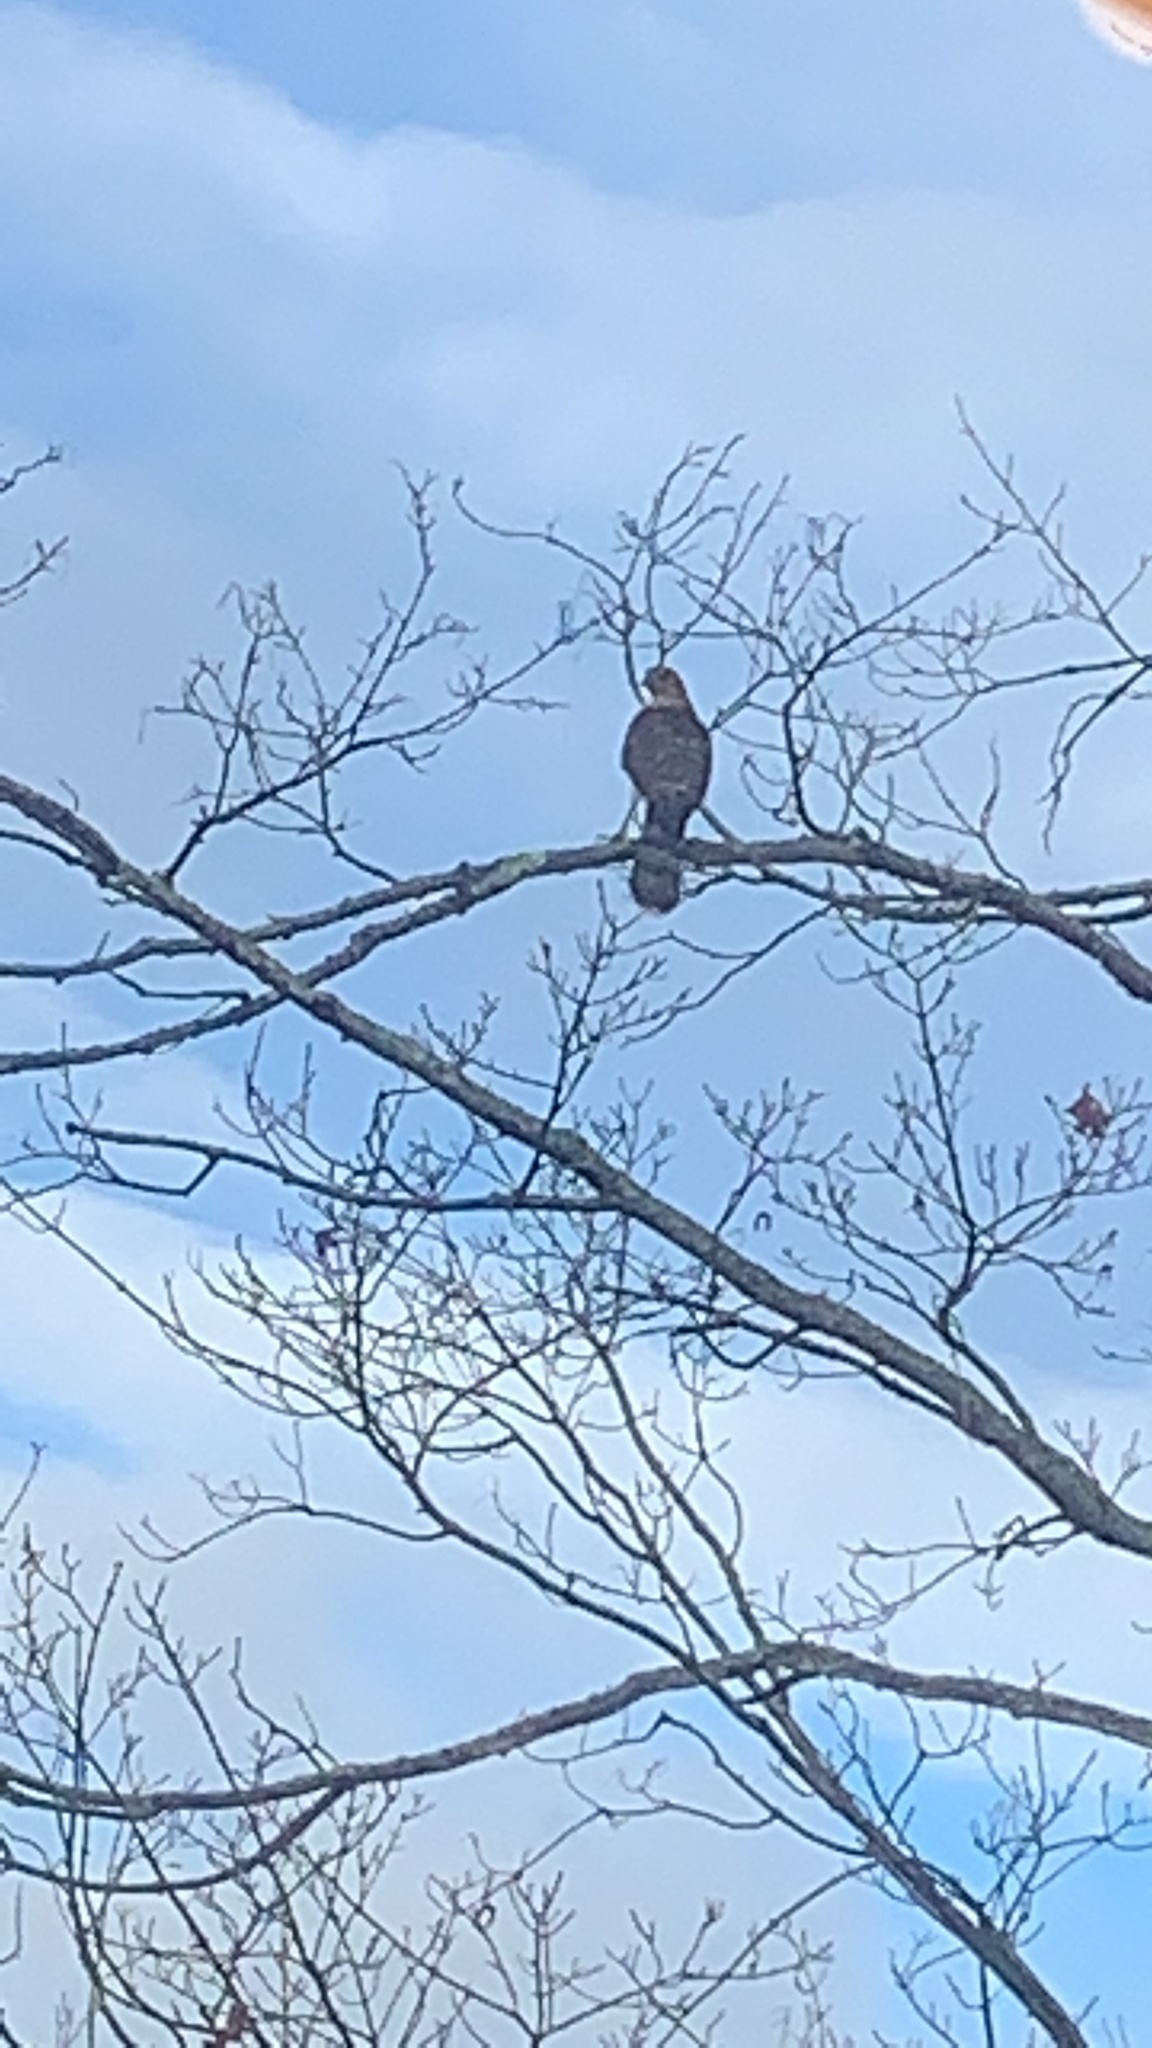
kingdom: Animalia
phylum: Chordata
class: Aves
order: Accipitriformes
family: Accipitridae
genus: Accipiter
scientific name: Accipiter cooperii
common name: Cooper's hawk
